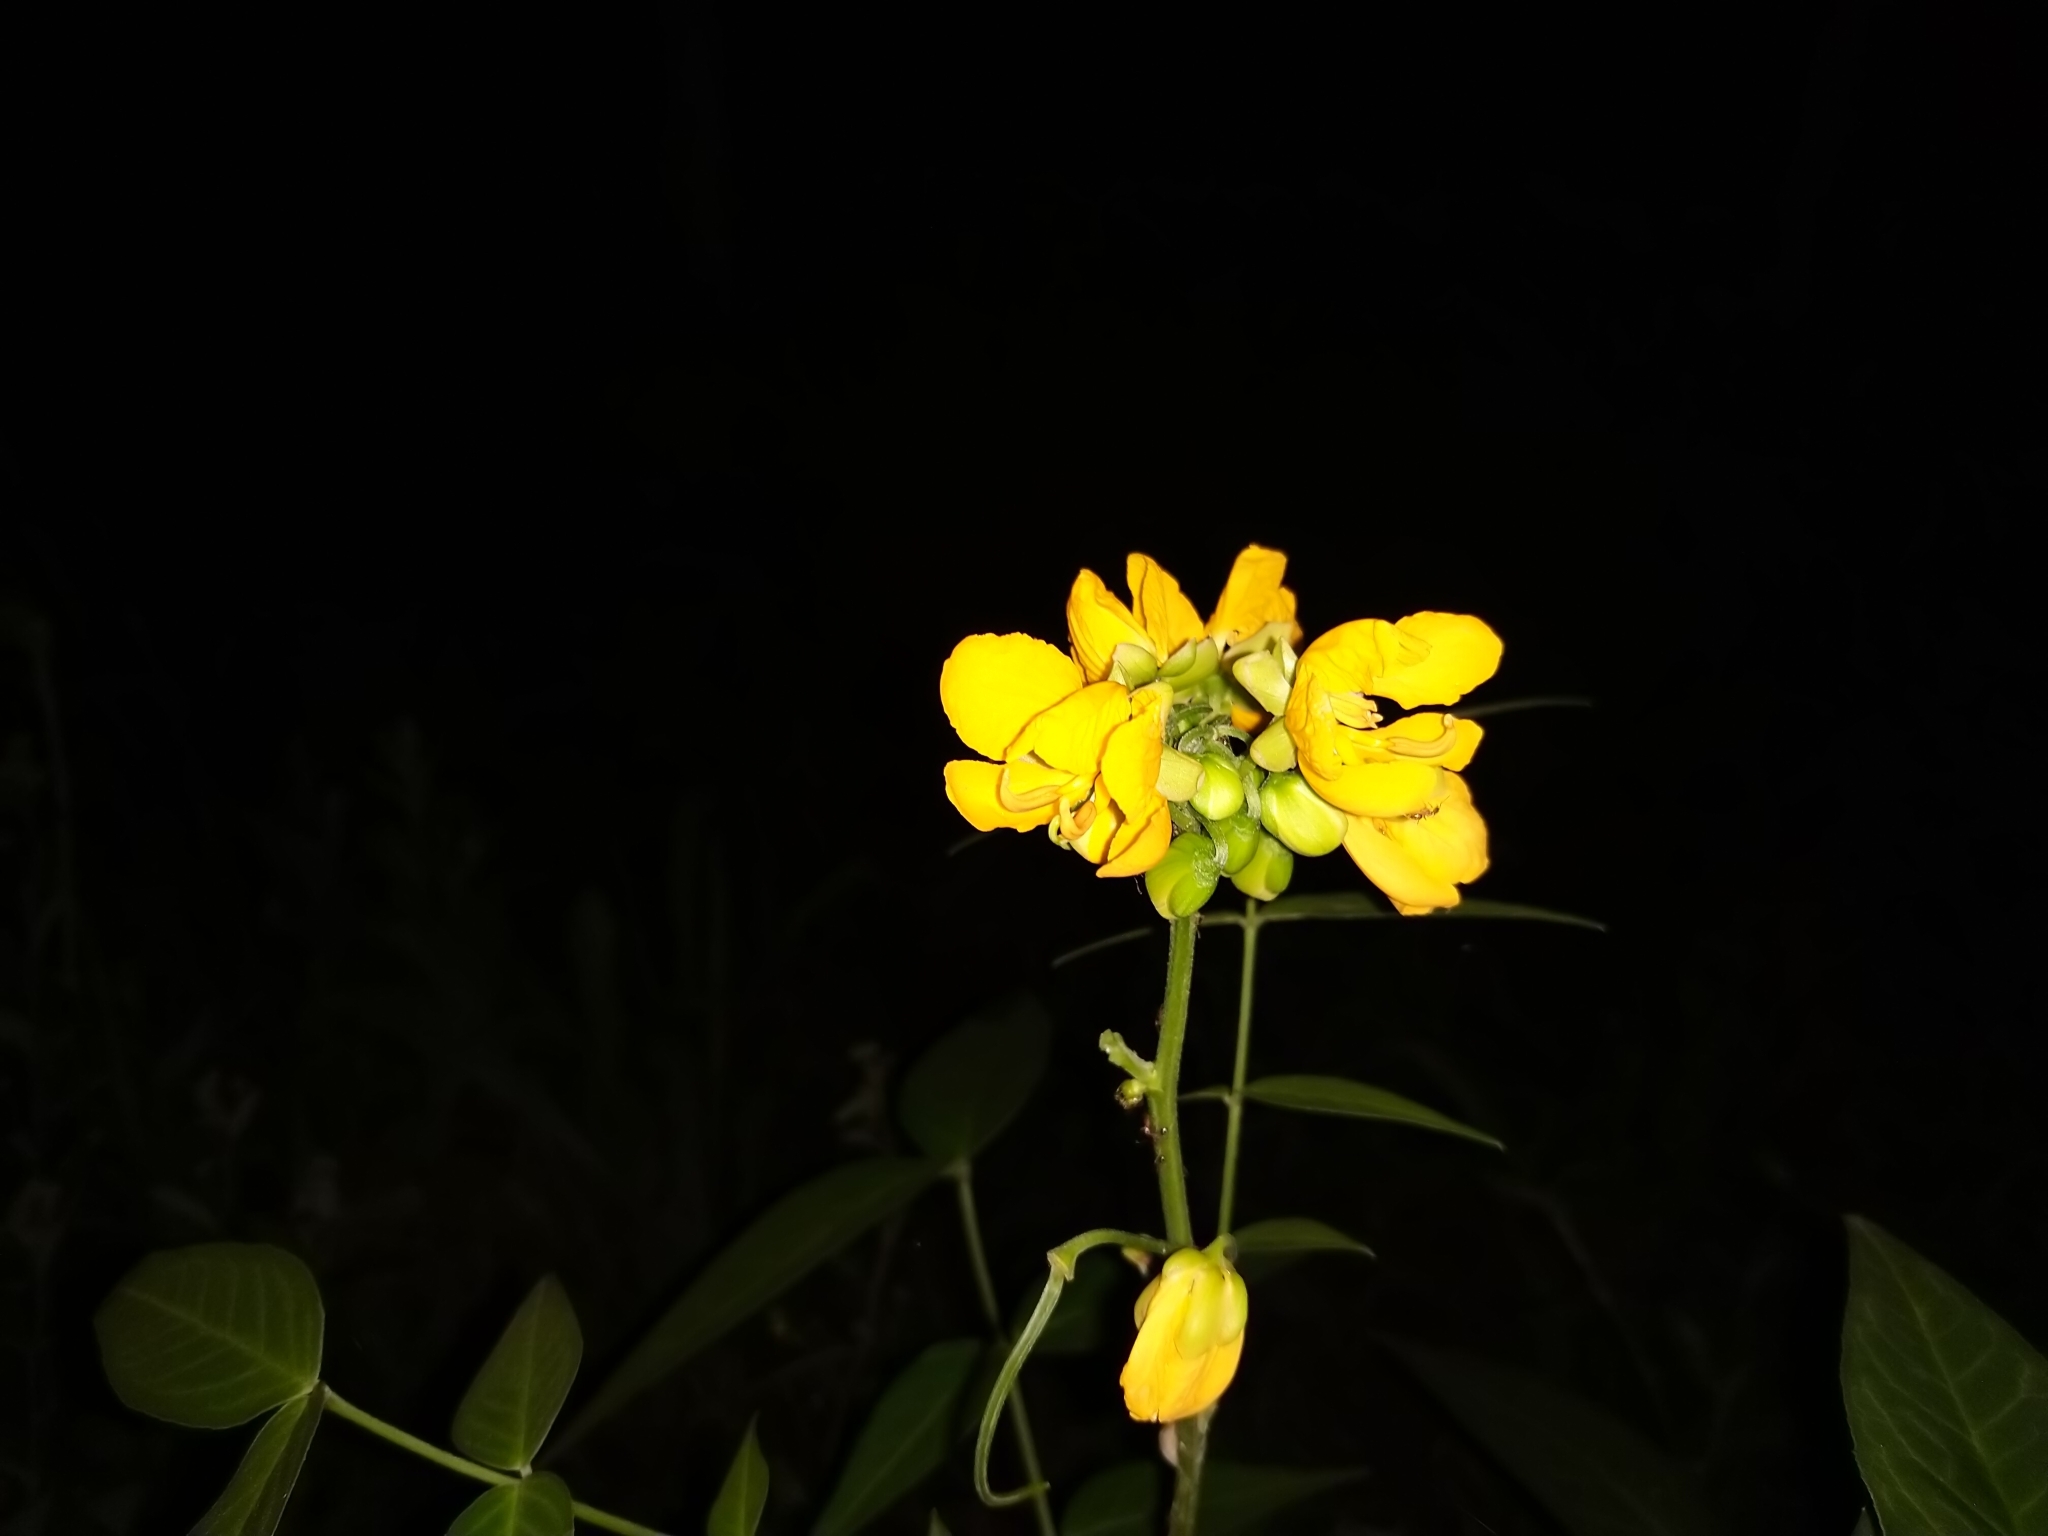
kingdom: Plantae
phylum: Tracheophyta
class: Magnoliopsida
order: Fabales
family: Fabaceae
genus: Senna
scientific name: Senna scabriuscula
